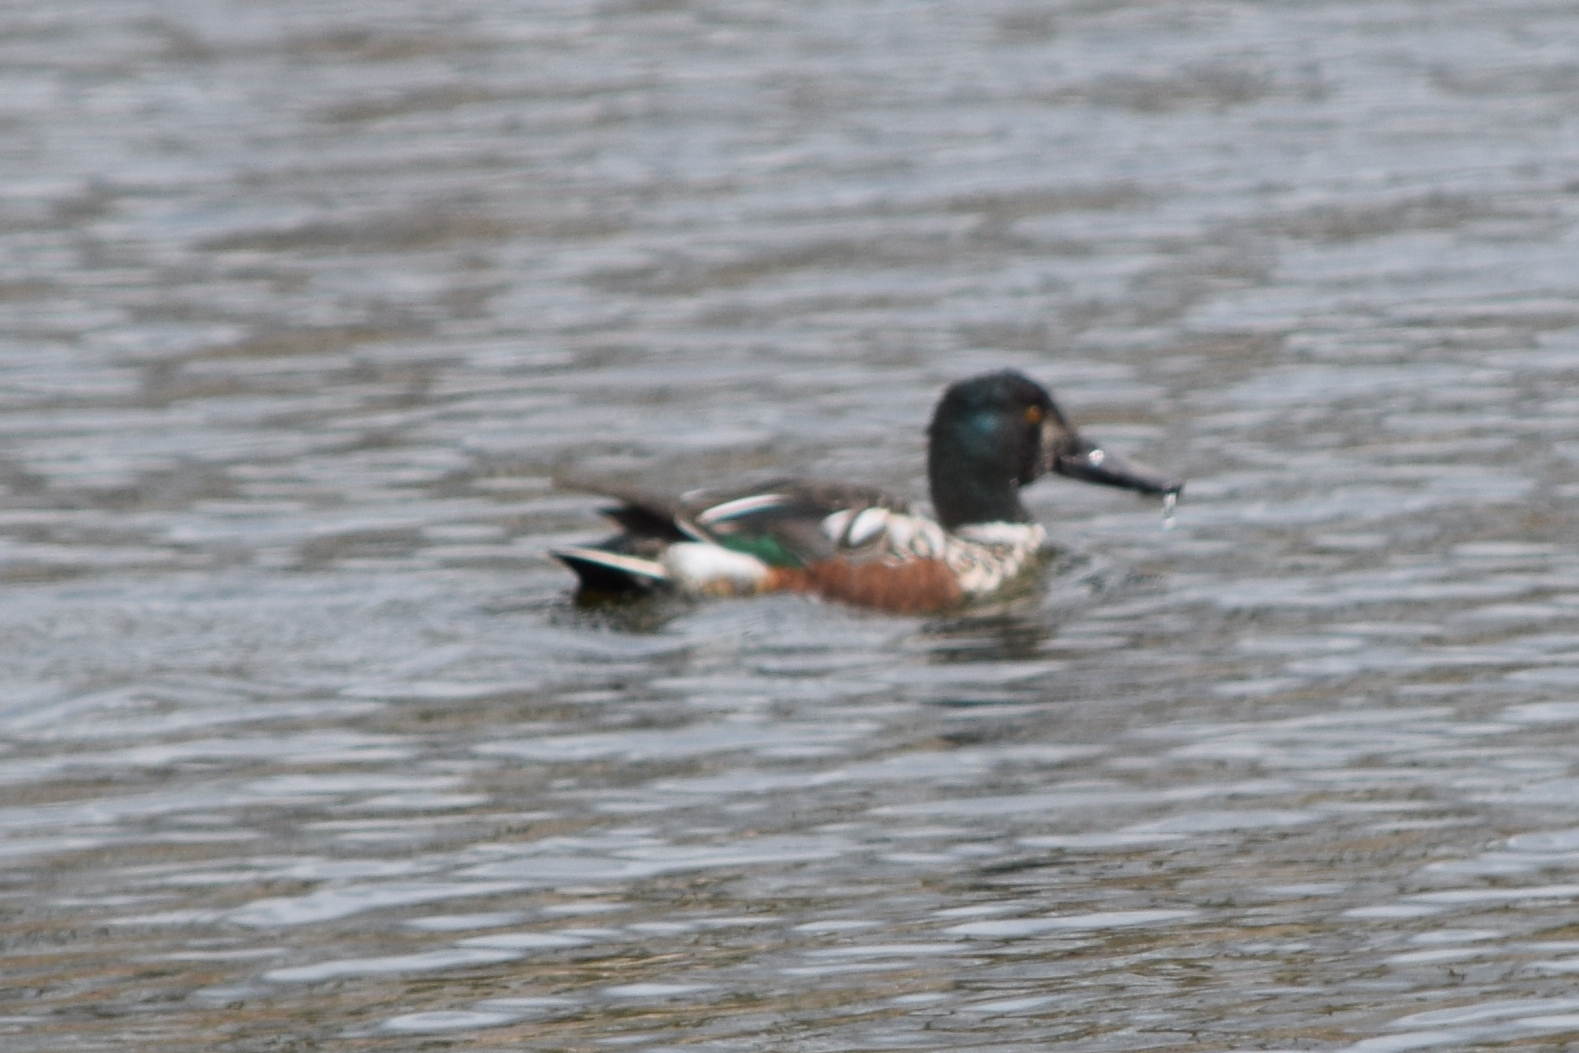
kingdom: Animalia
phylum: Chordata
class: Aves
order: Anseriformes
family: Anatidae
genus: Spatula
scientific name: Spatula clypeata
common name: Northern shoveler
